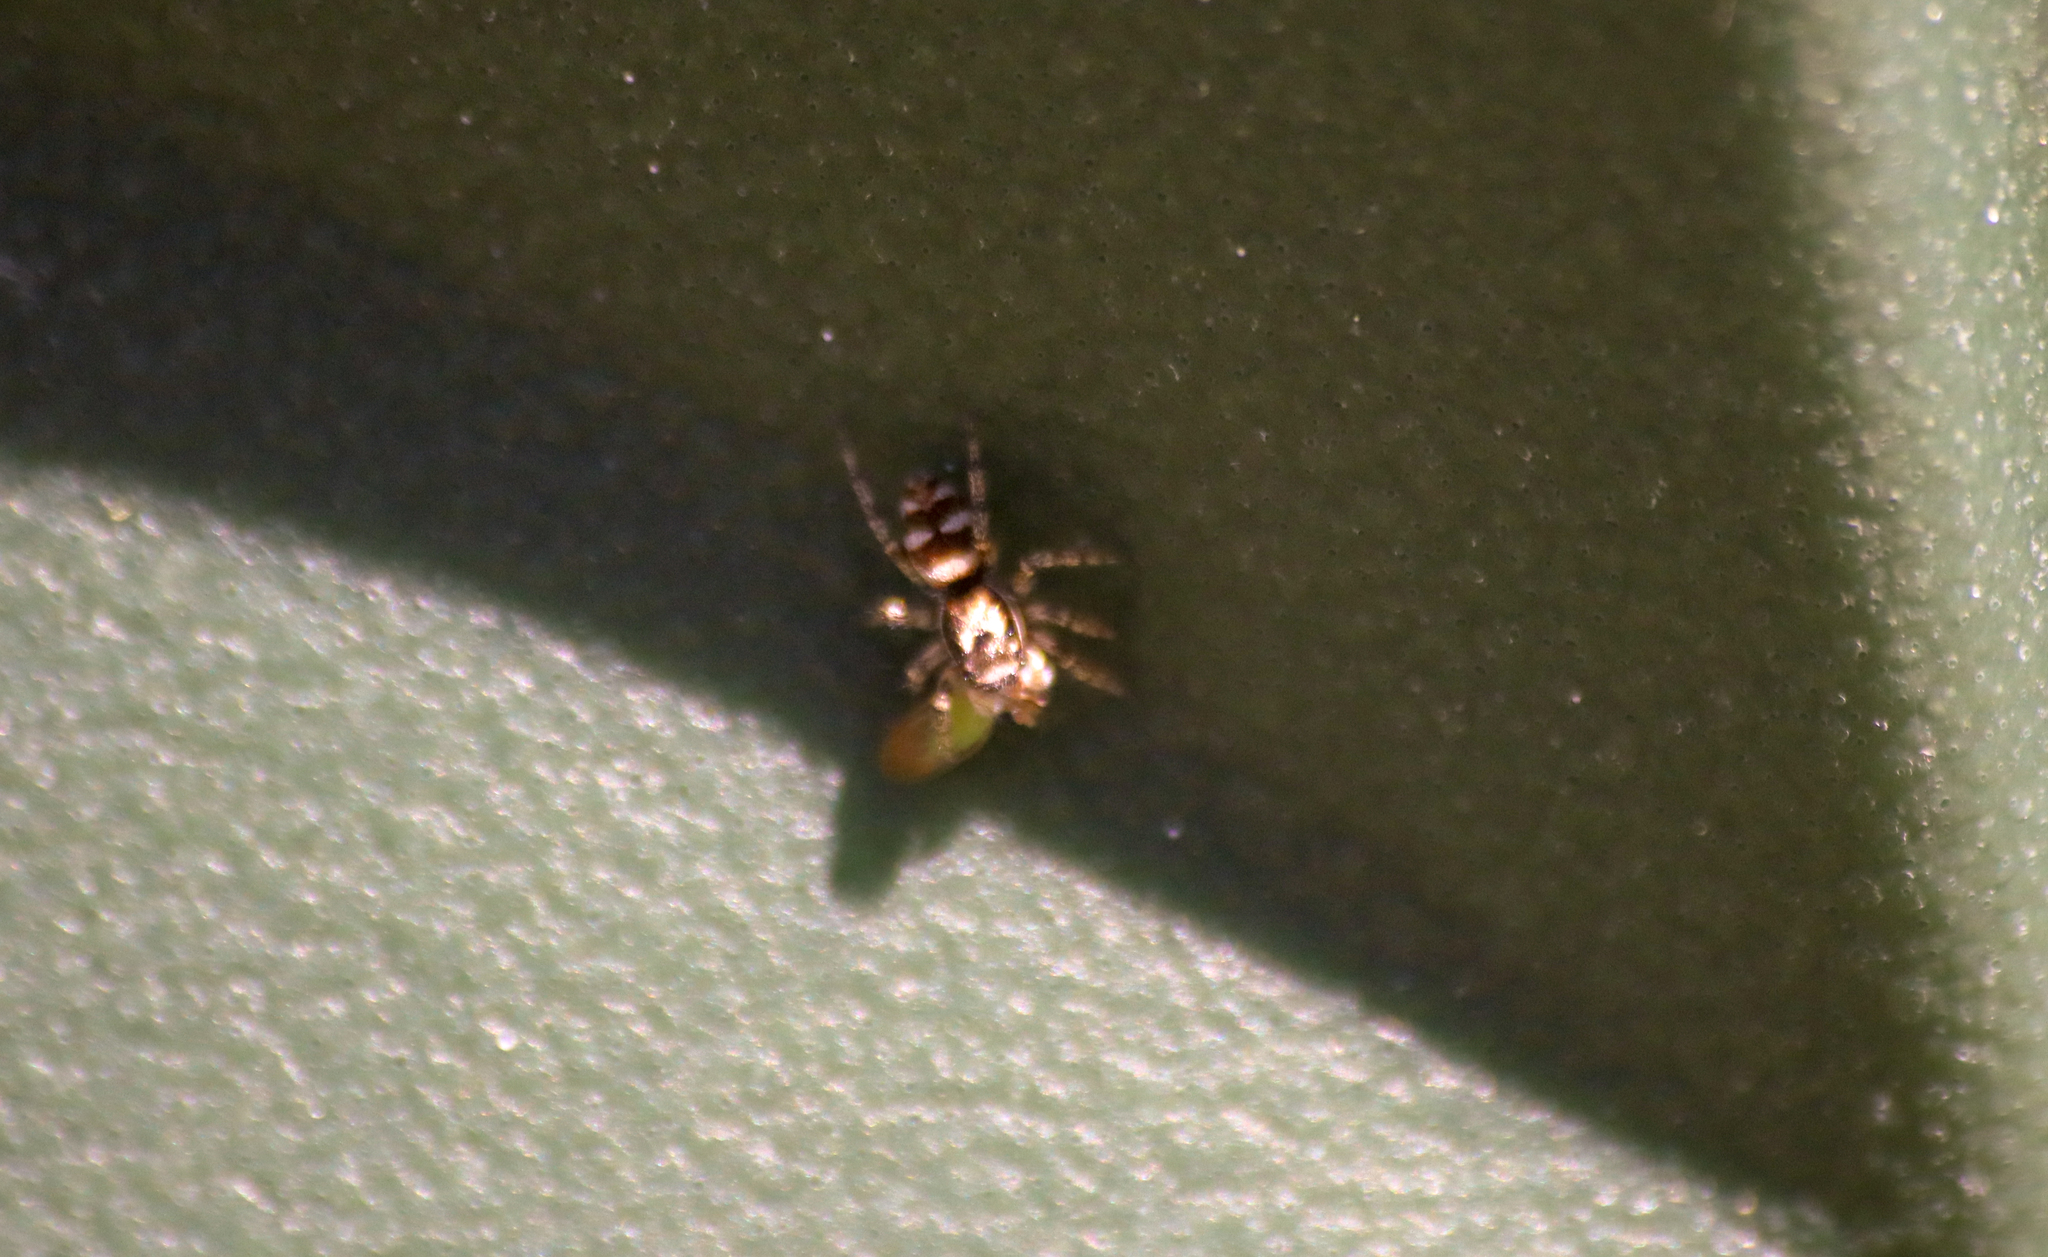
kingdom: Animalia
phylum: Arthropoda
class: Arachnida
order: Araneae
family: Salticidae
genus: Salticus
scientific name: Salticus scenicus
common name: Zebra jumper
